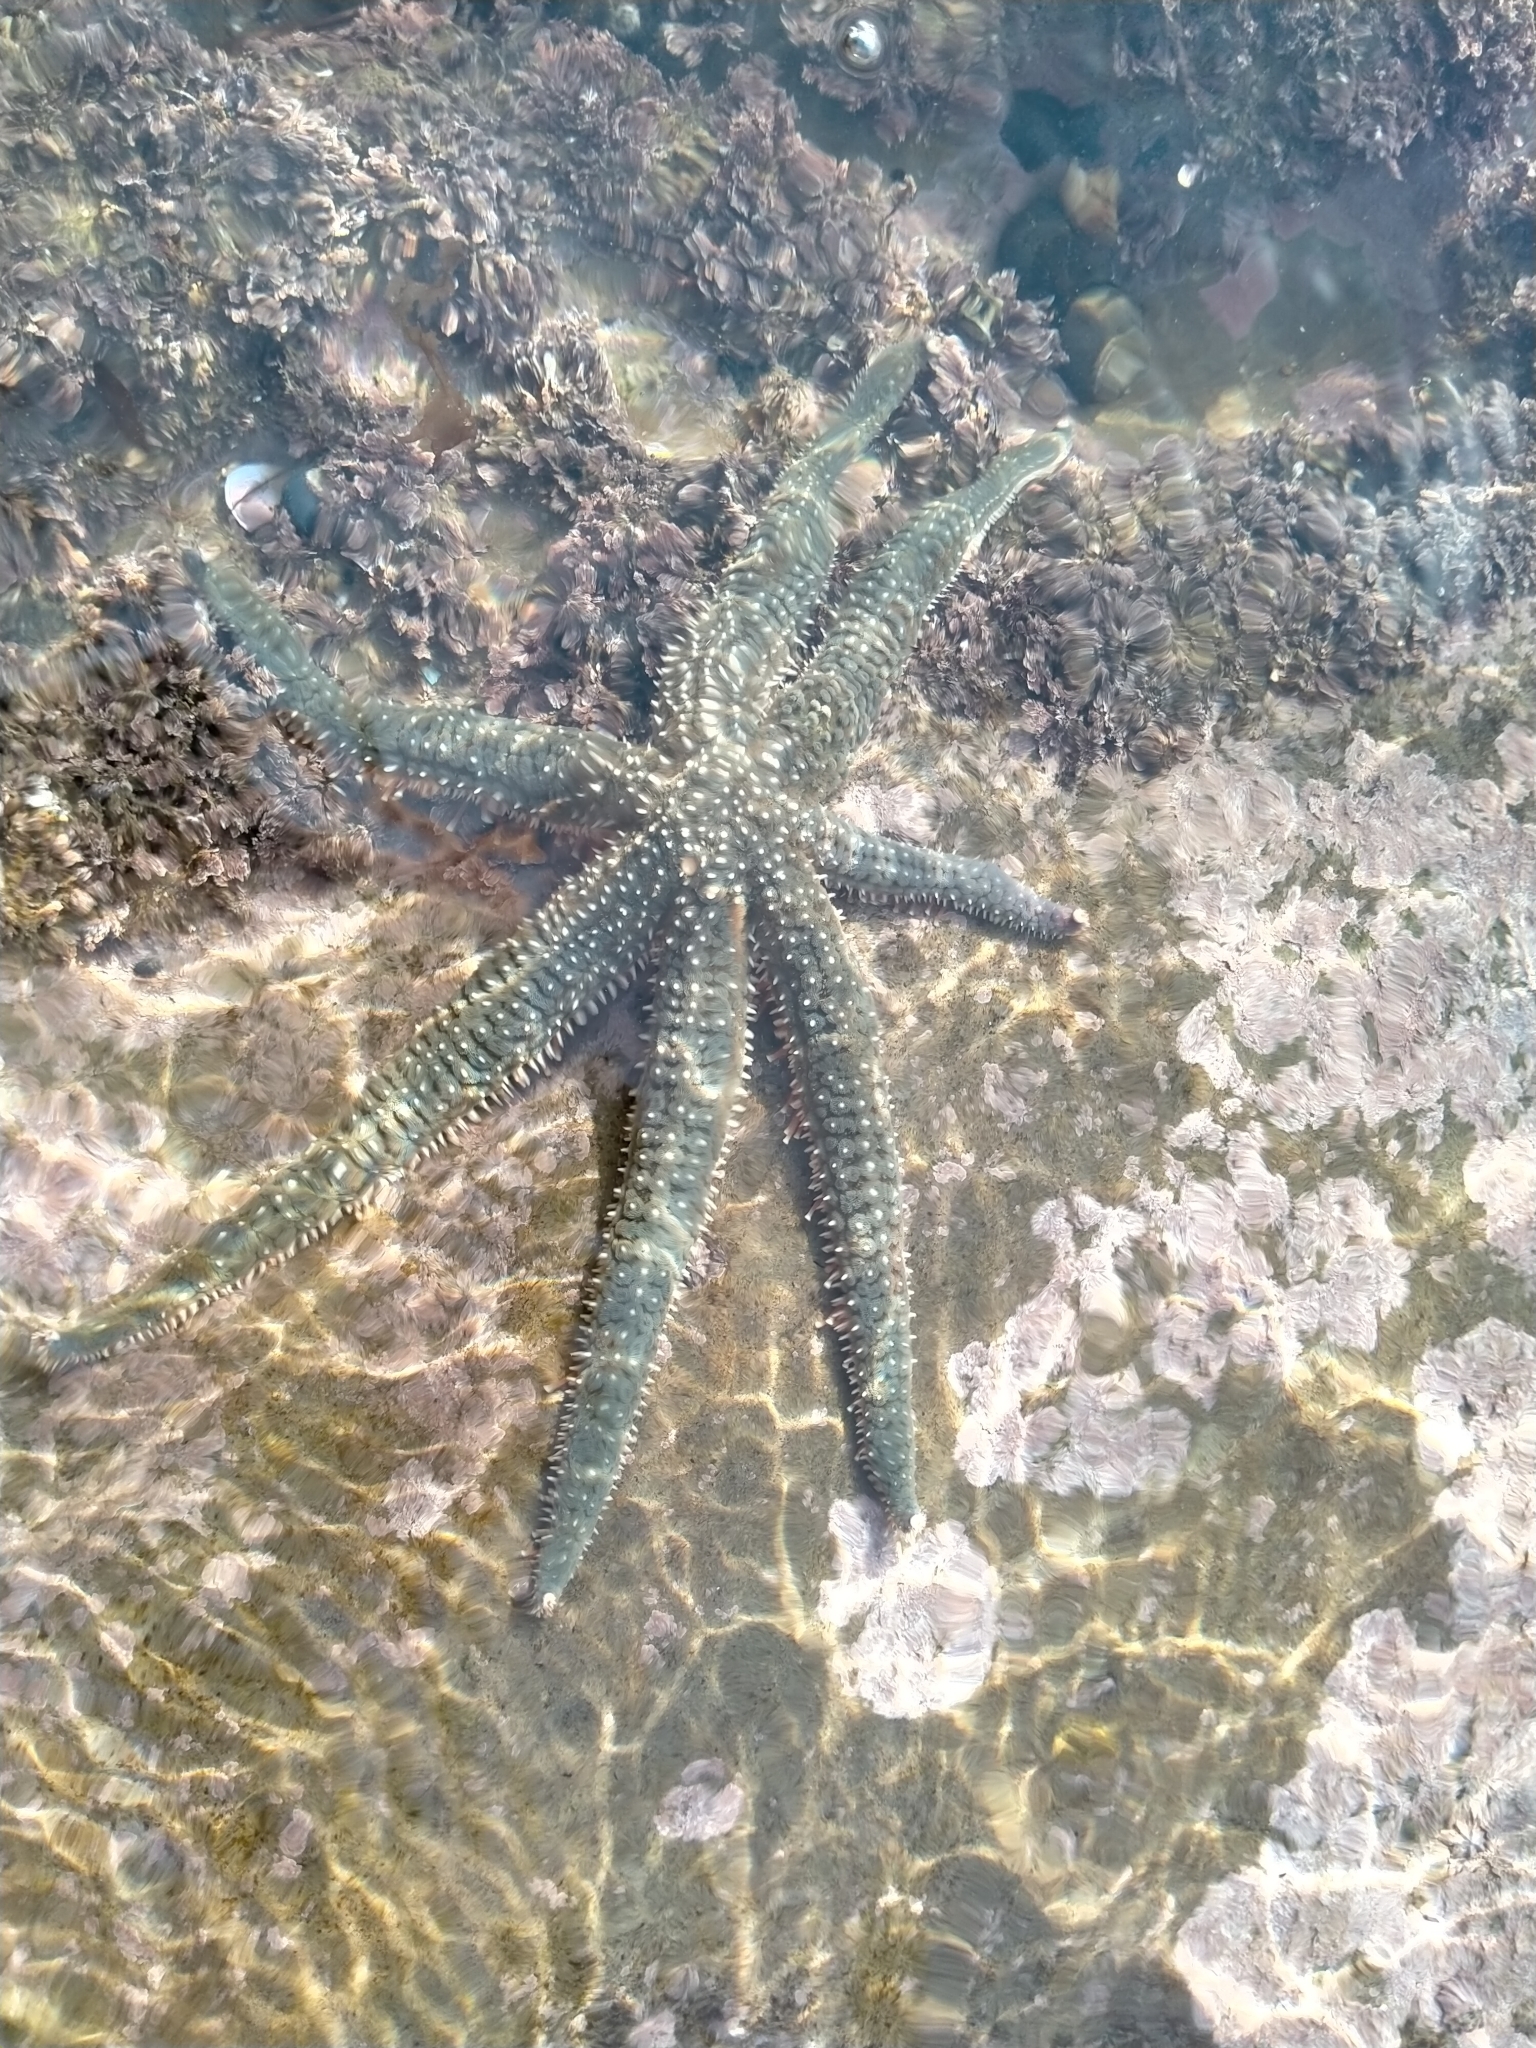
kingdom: Animalia
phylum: Echinodermata
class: Asteroidea
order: Forcipulatida
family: Asteriidae
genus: Astrostole
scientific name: Astrostole scabra
